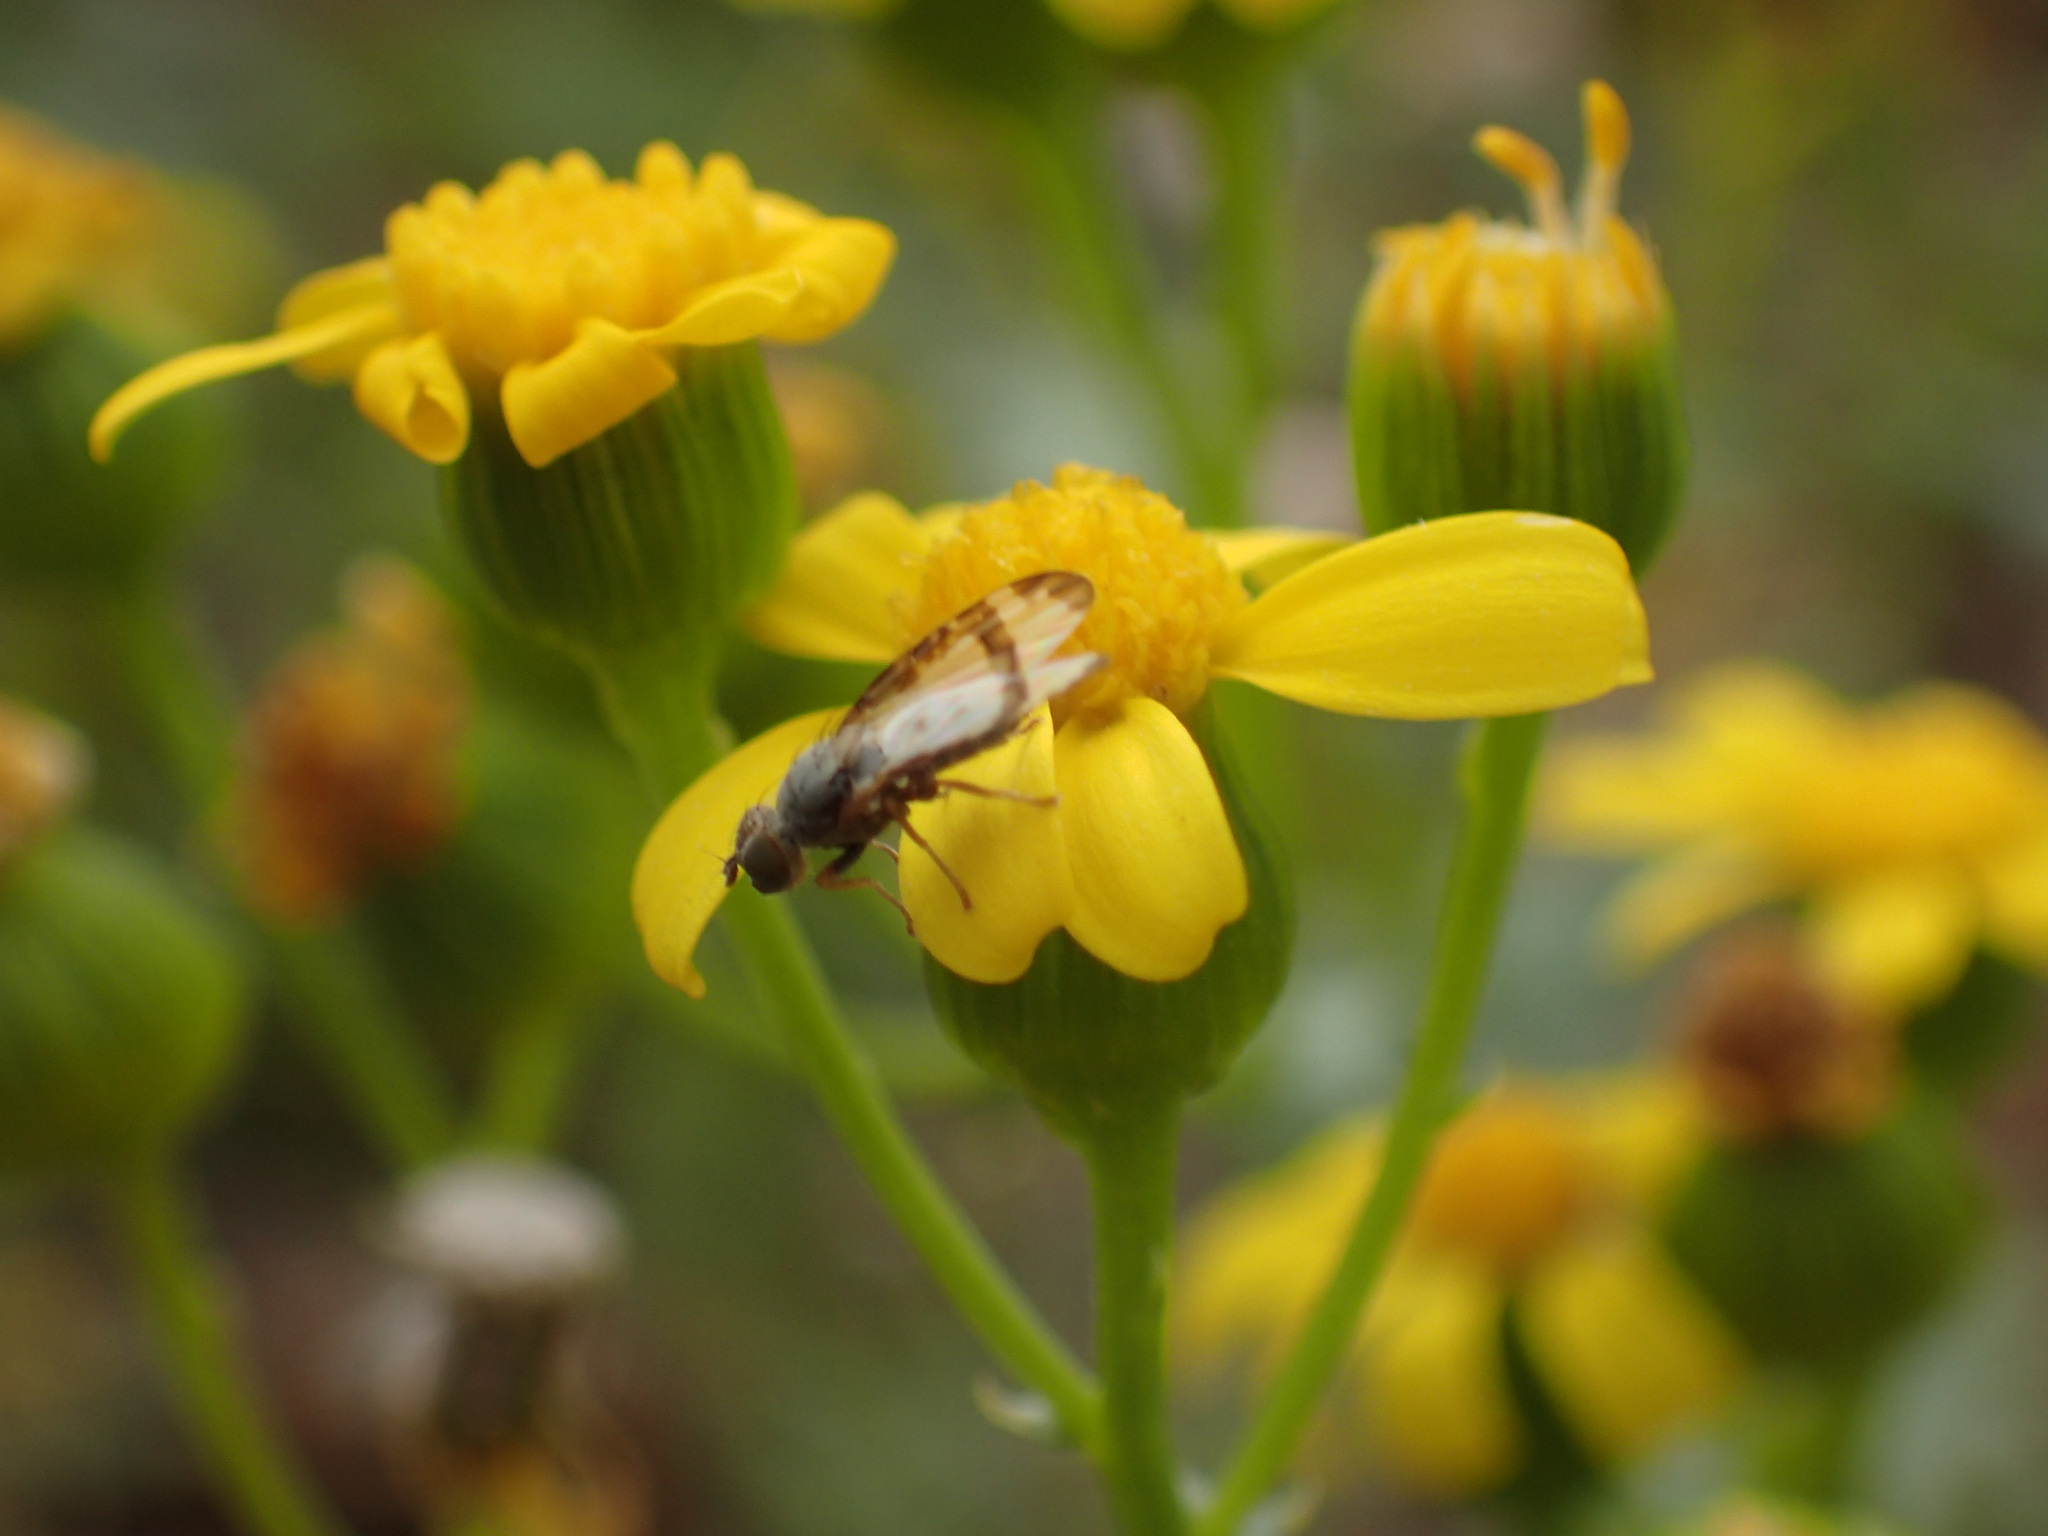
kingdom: Plantae
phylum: Tracheophyta
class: Magnoliopsida
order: Asterales
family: Asteraceae
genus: Senecio
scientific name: Senecio piptocoma
